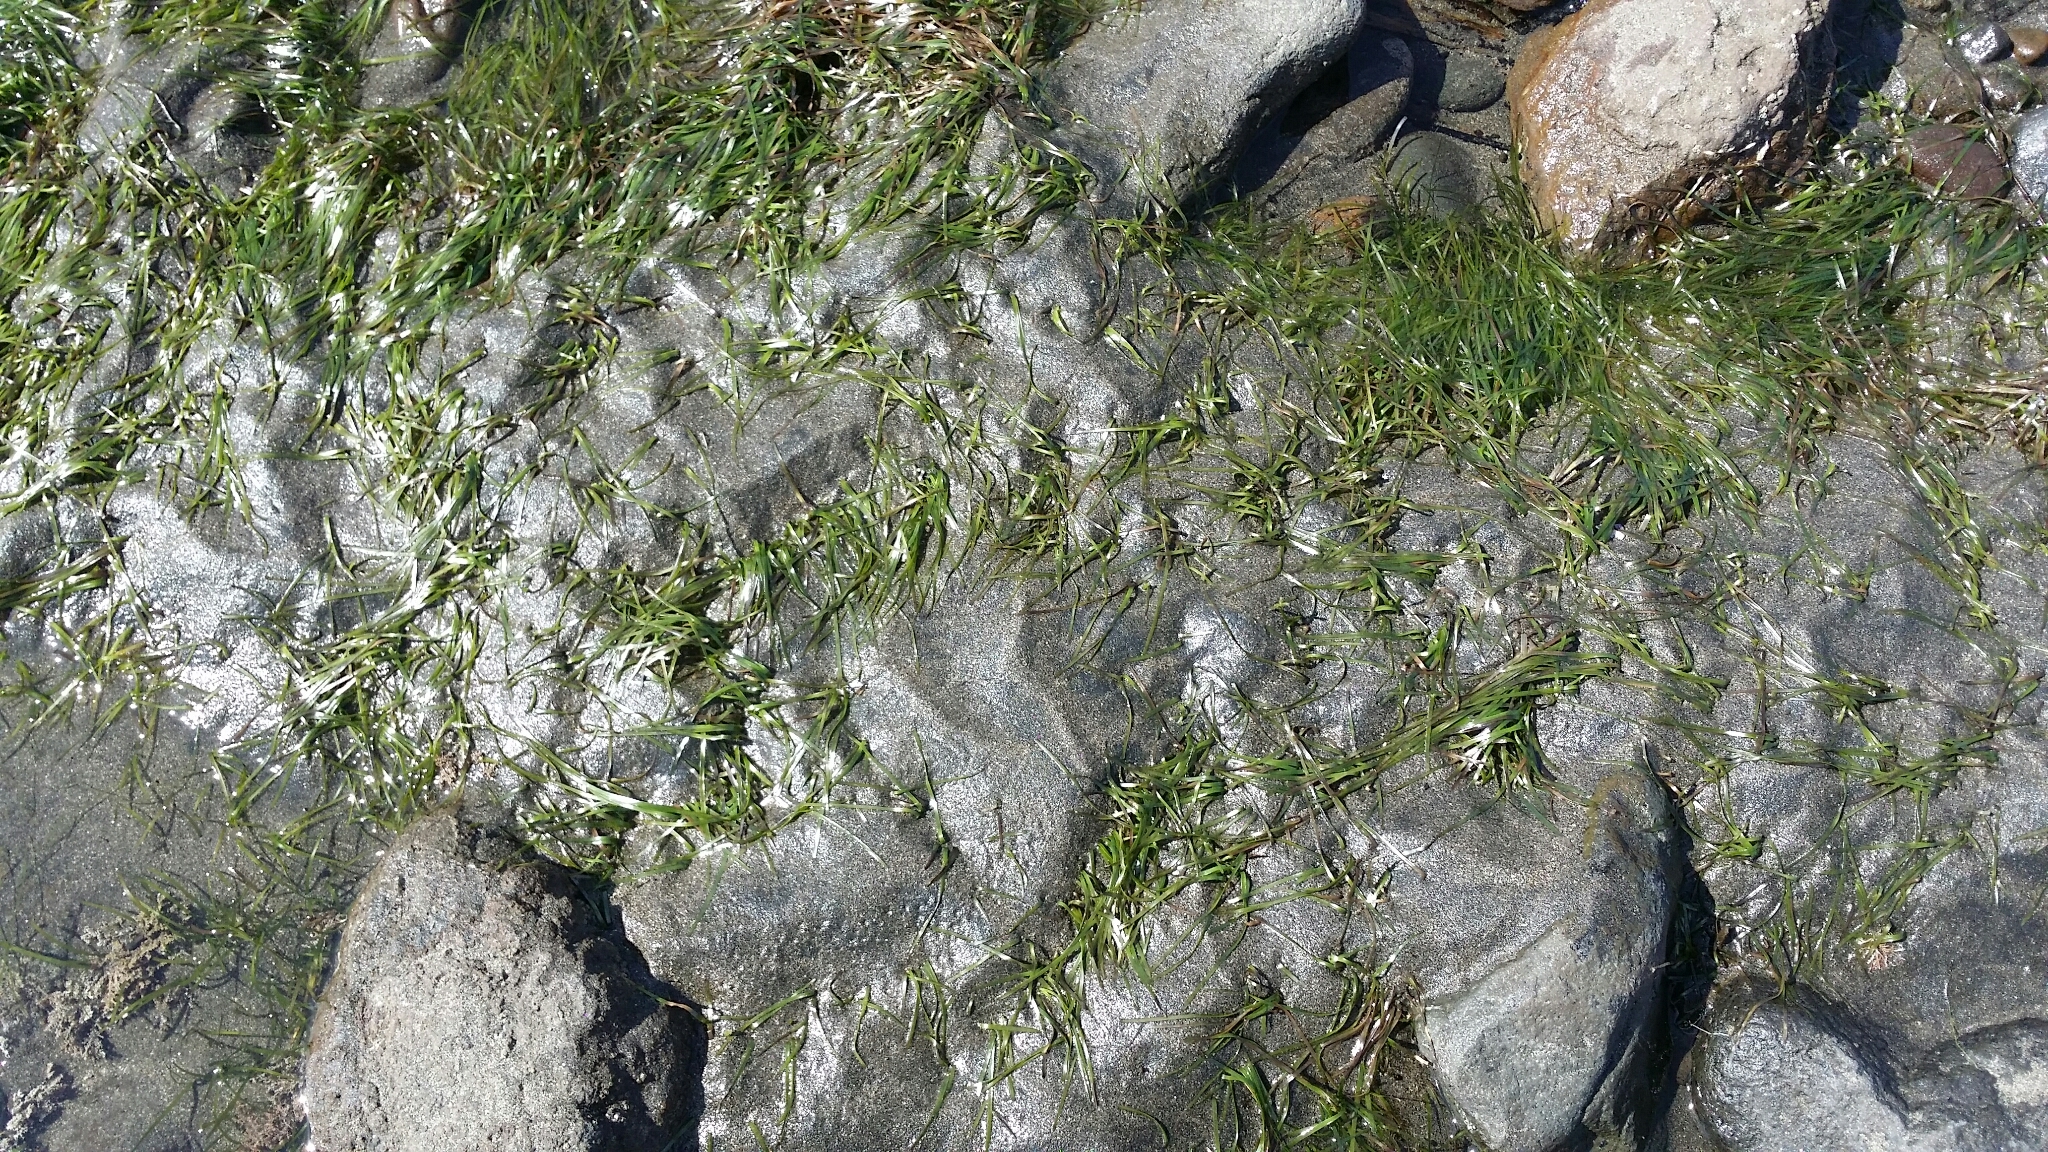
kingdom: Plantae
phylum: Tracheophyta
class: Liliopsida
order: Alismatales
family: Zosteraceae
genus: Zostera
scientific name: Zostera muelleri
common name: Species code: zc
